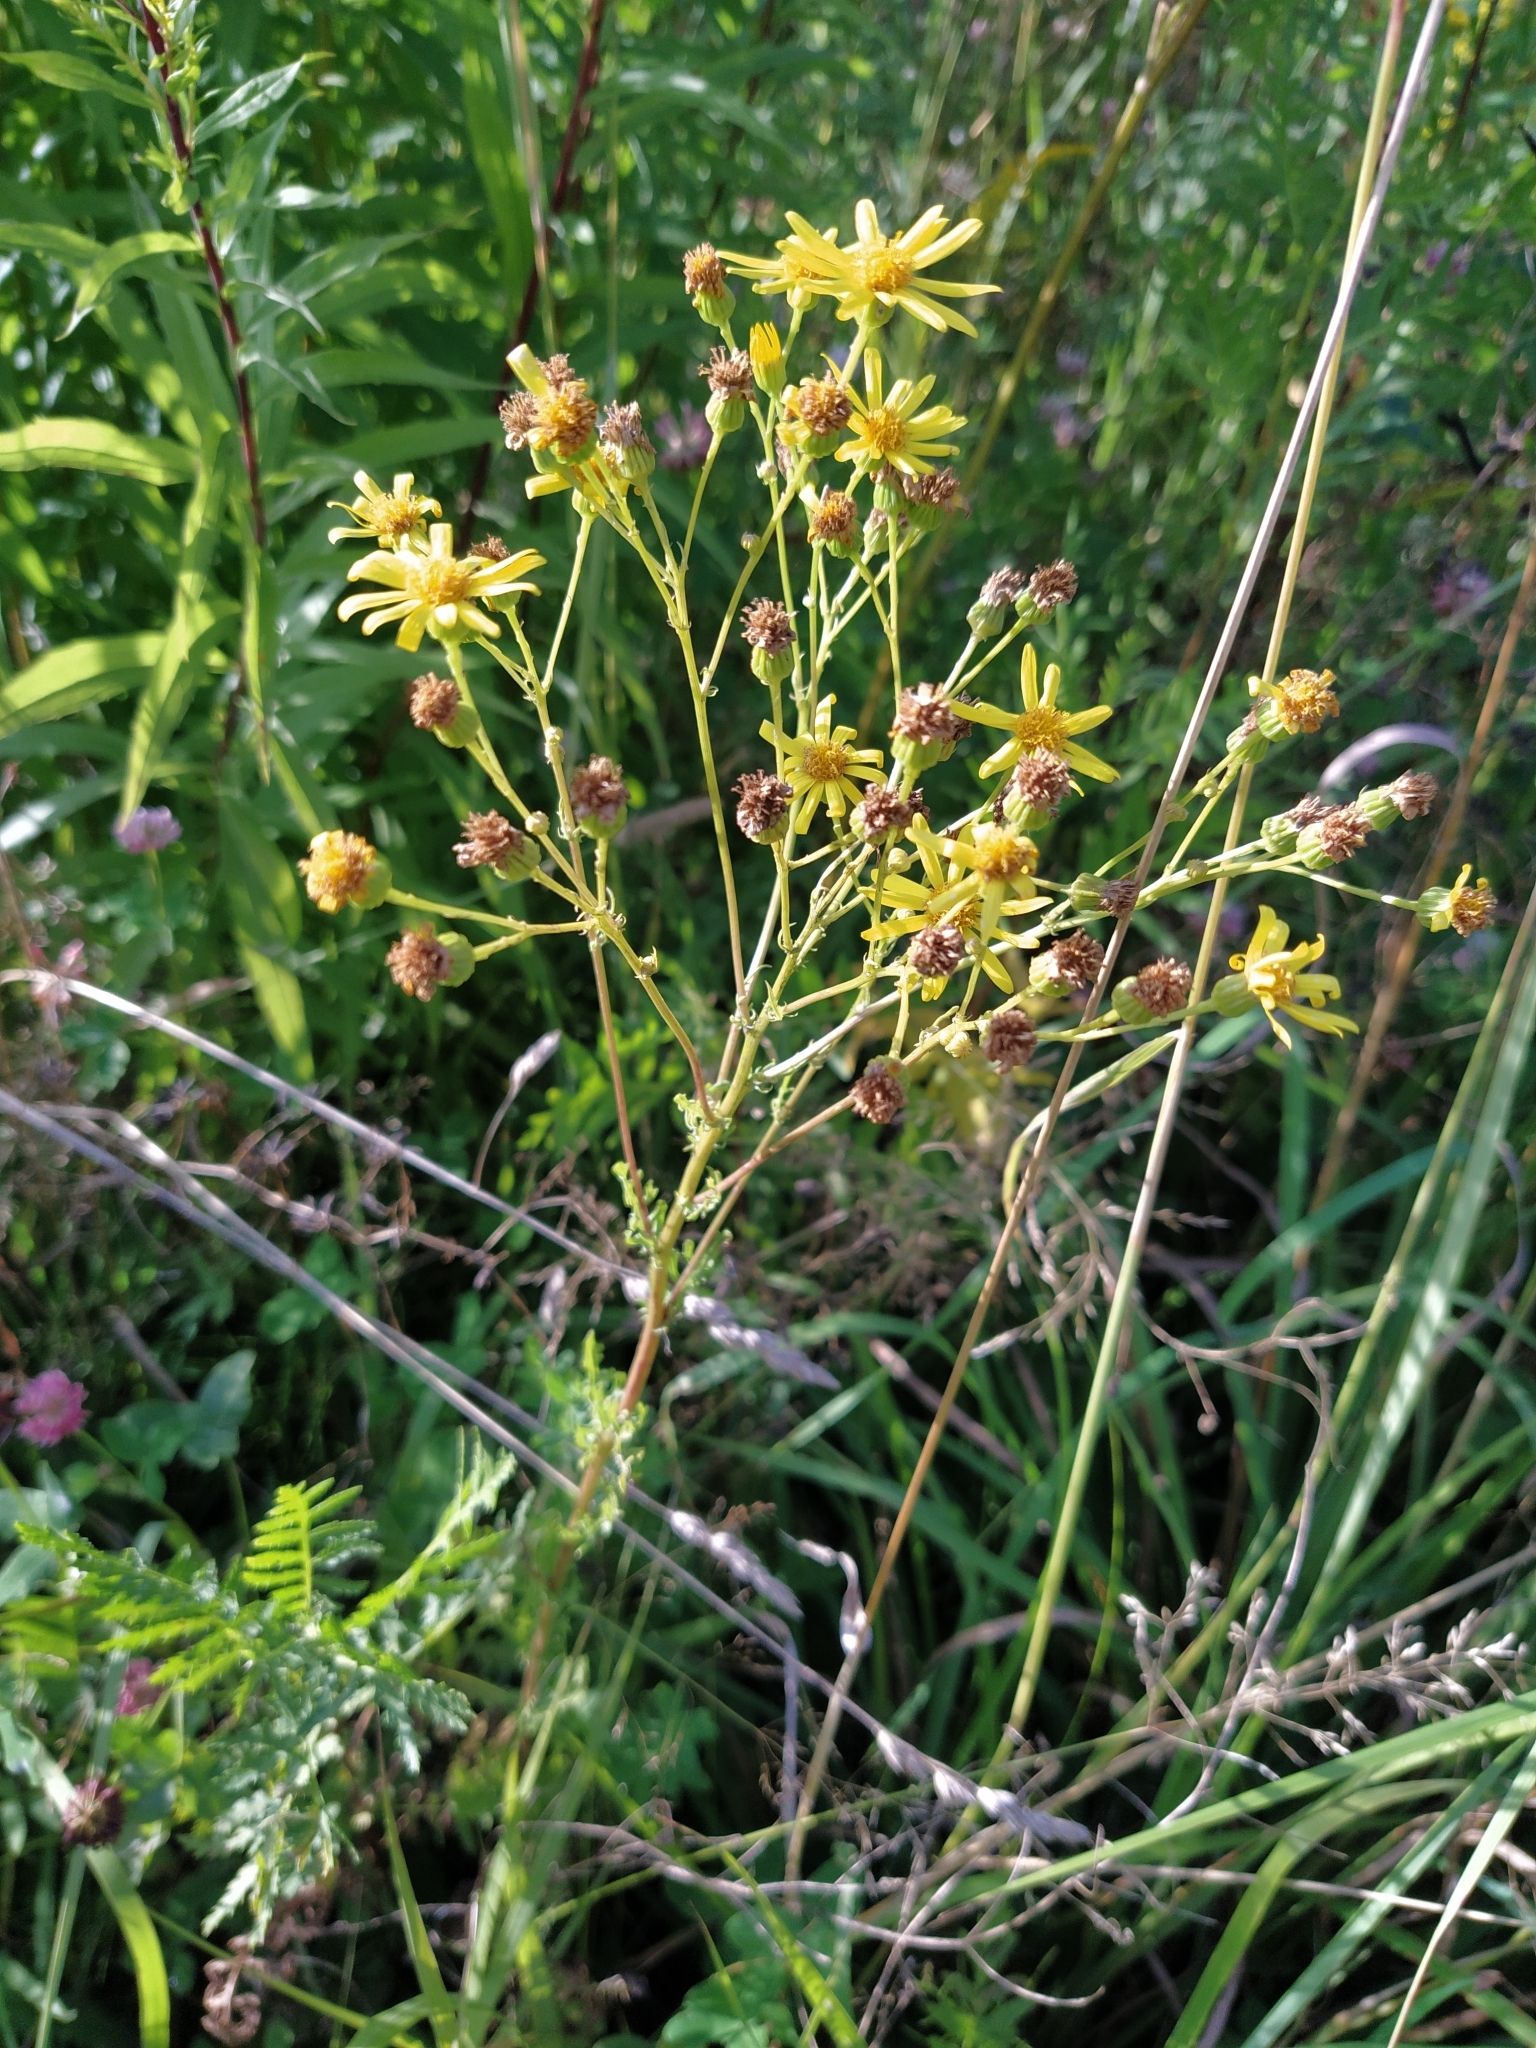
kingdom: Plantae
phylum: Tracheophyta
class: Magnoliopsida
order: Asterales
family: Asteraceae
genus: Jacobaea
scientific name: Jacobaea vulgaris
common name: Stinking willie
